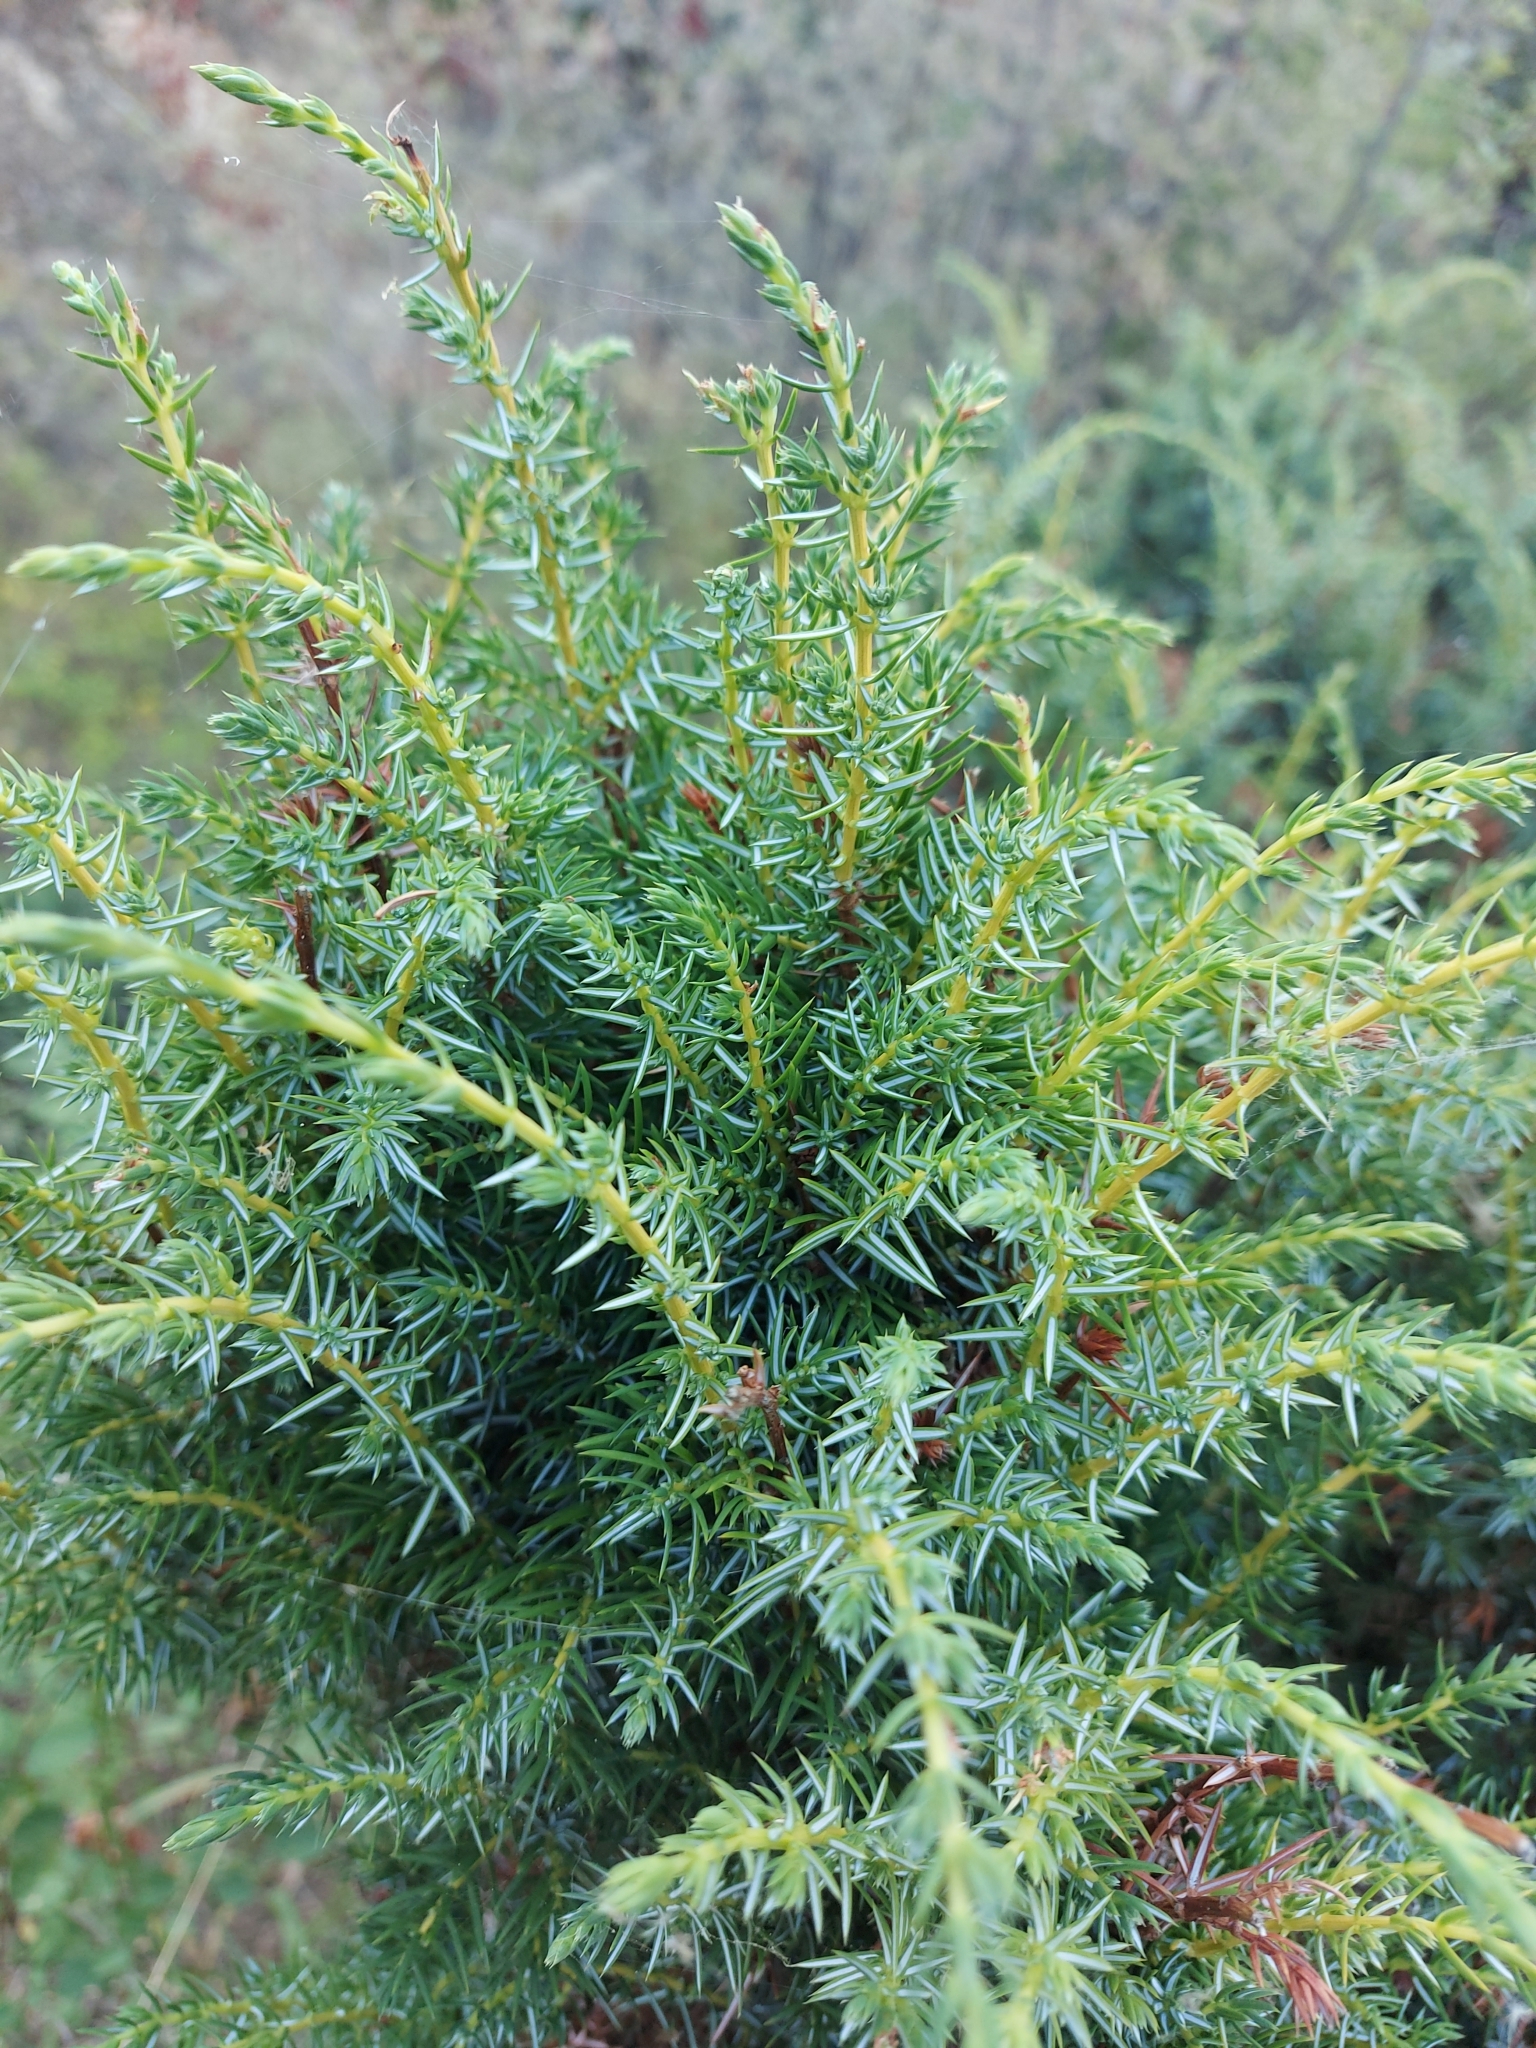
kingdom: Plantae
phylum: Tracheophyta
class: Pinopsida
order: Pinales
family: Cupressaceae
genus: Juniperus
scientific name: Juniperus communis
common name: Common juniper
